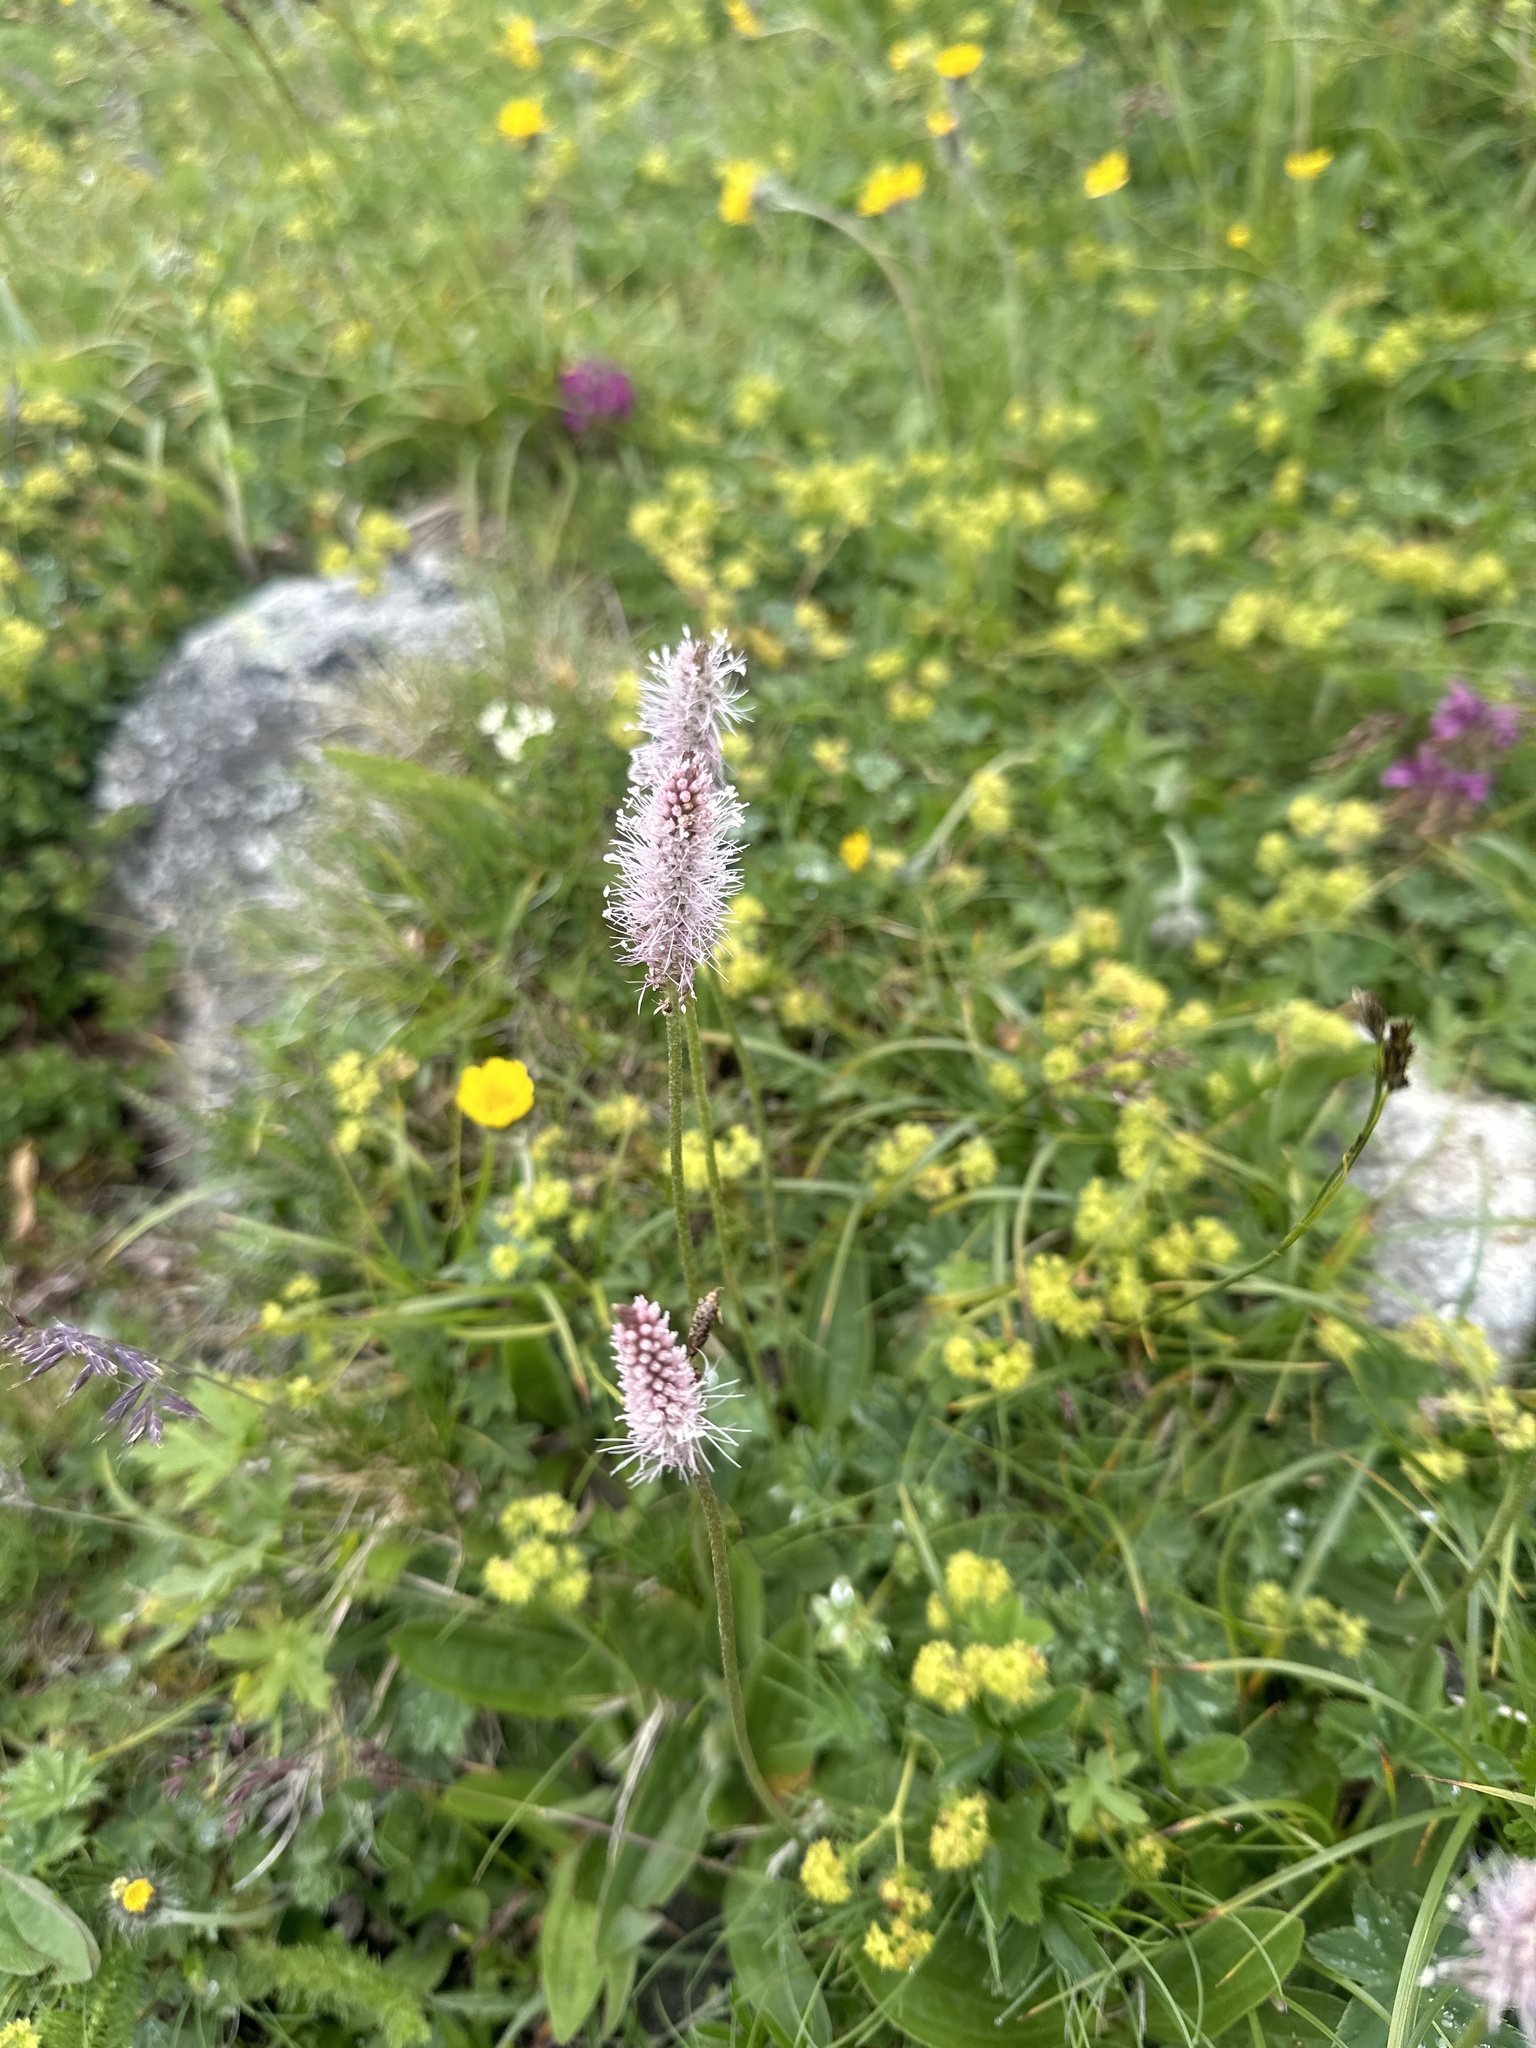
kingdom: Plantae
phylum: Tracheophyta
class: Magnoliopsida
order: Lamiales
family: Plantaginaceae
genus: Plantago
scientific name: Plantago media
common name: Hoary plantain
